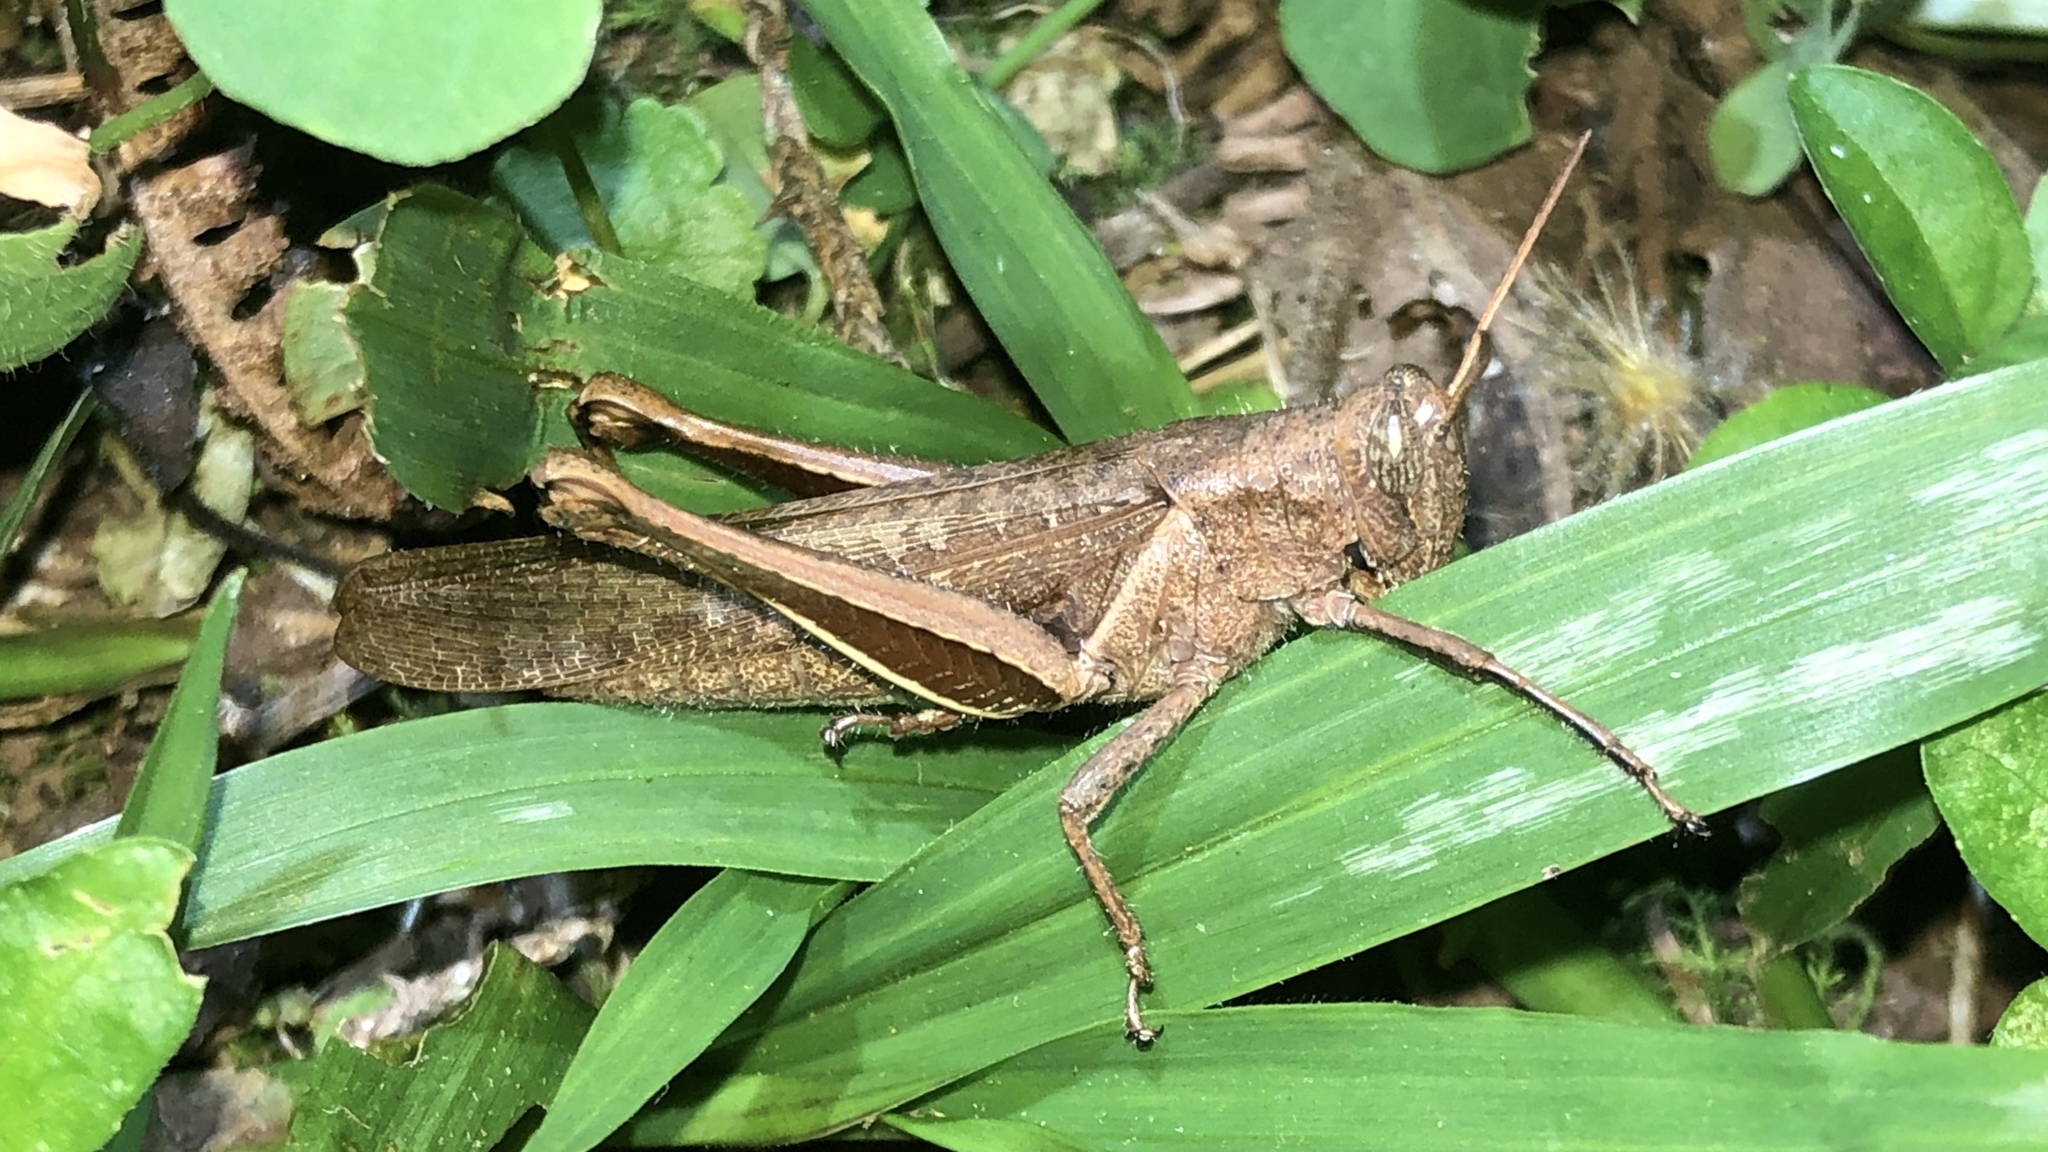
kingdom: Animalia
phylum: Arthropoda
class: Insecta
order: Orthoptera
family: Acrididae
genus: Abracris
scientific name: Abracris flavolineata
